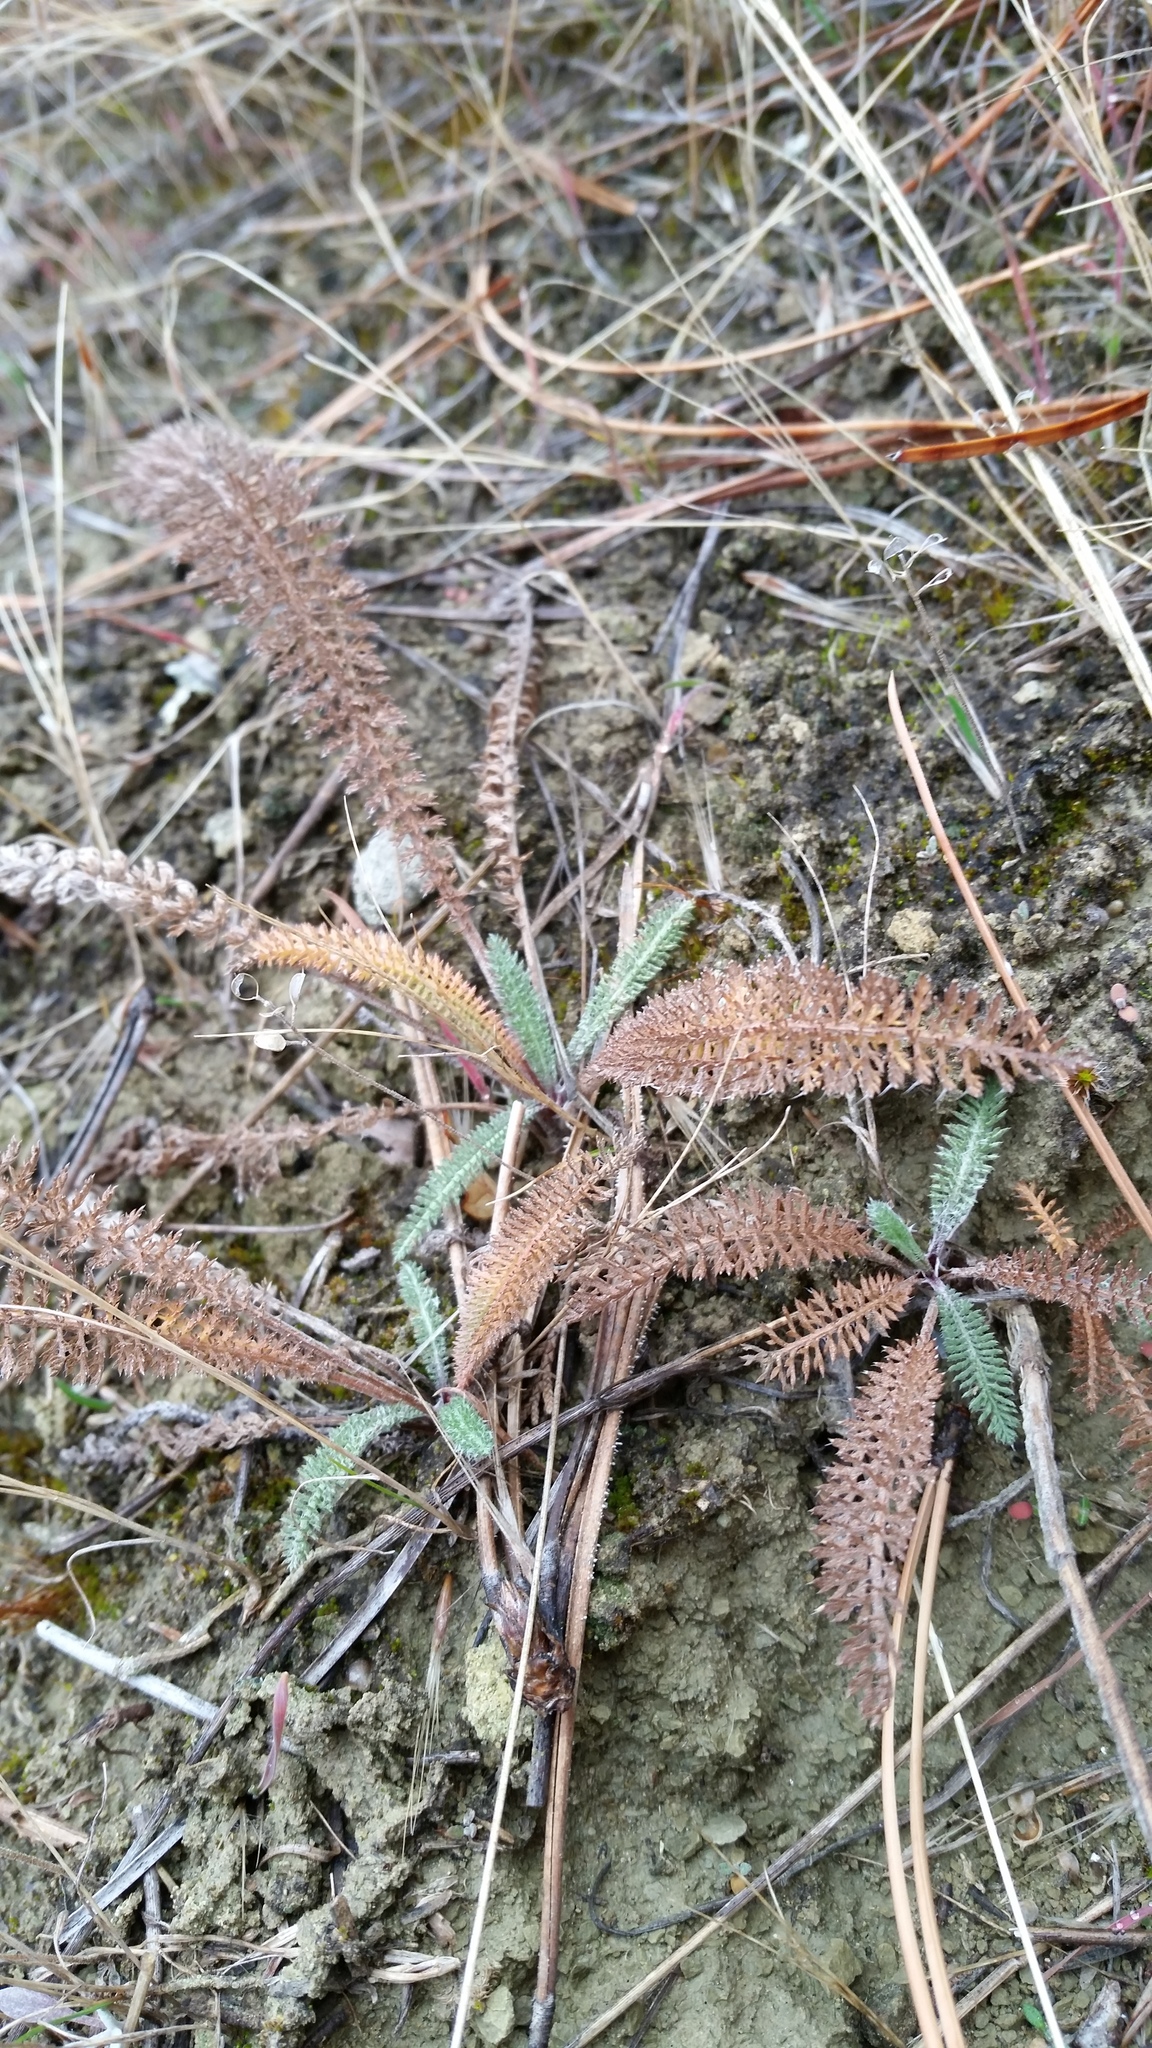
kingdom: Plantae
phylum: Tracheophyta
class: Magnoliopsida
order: Asterales
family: Asteraceae
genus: Achillea
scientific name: Achillea millefolium
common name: Yarrow
